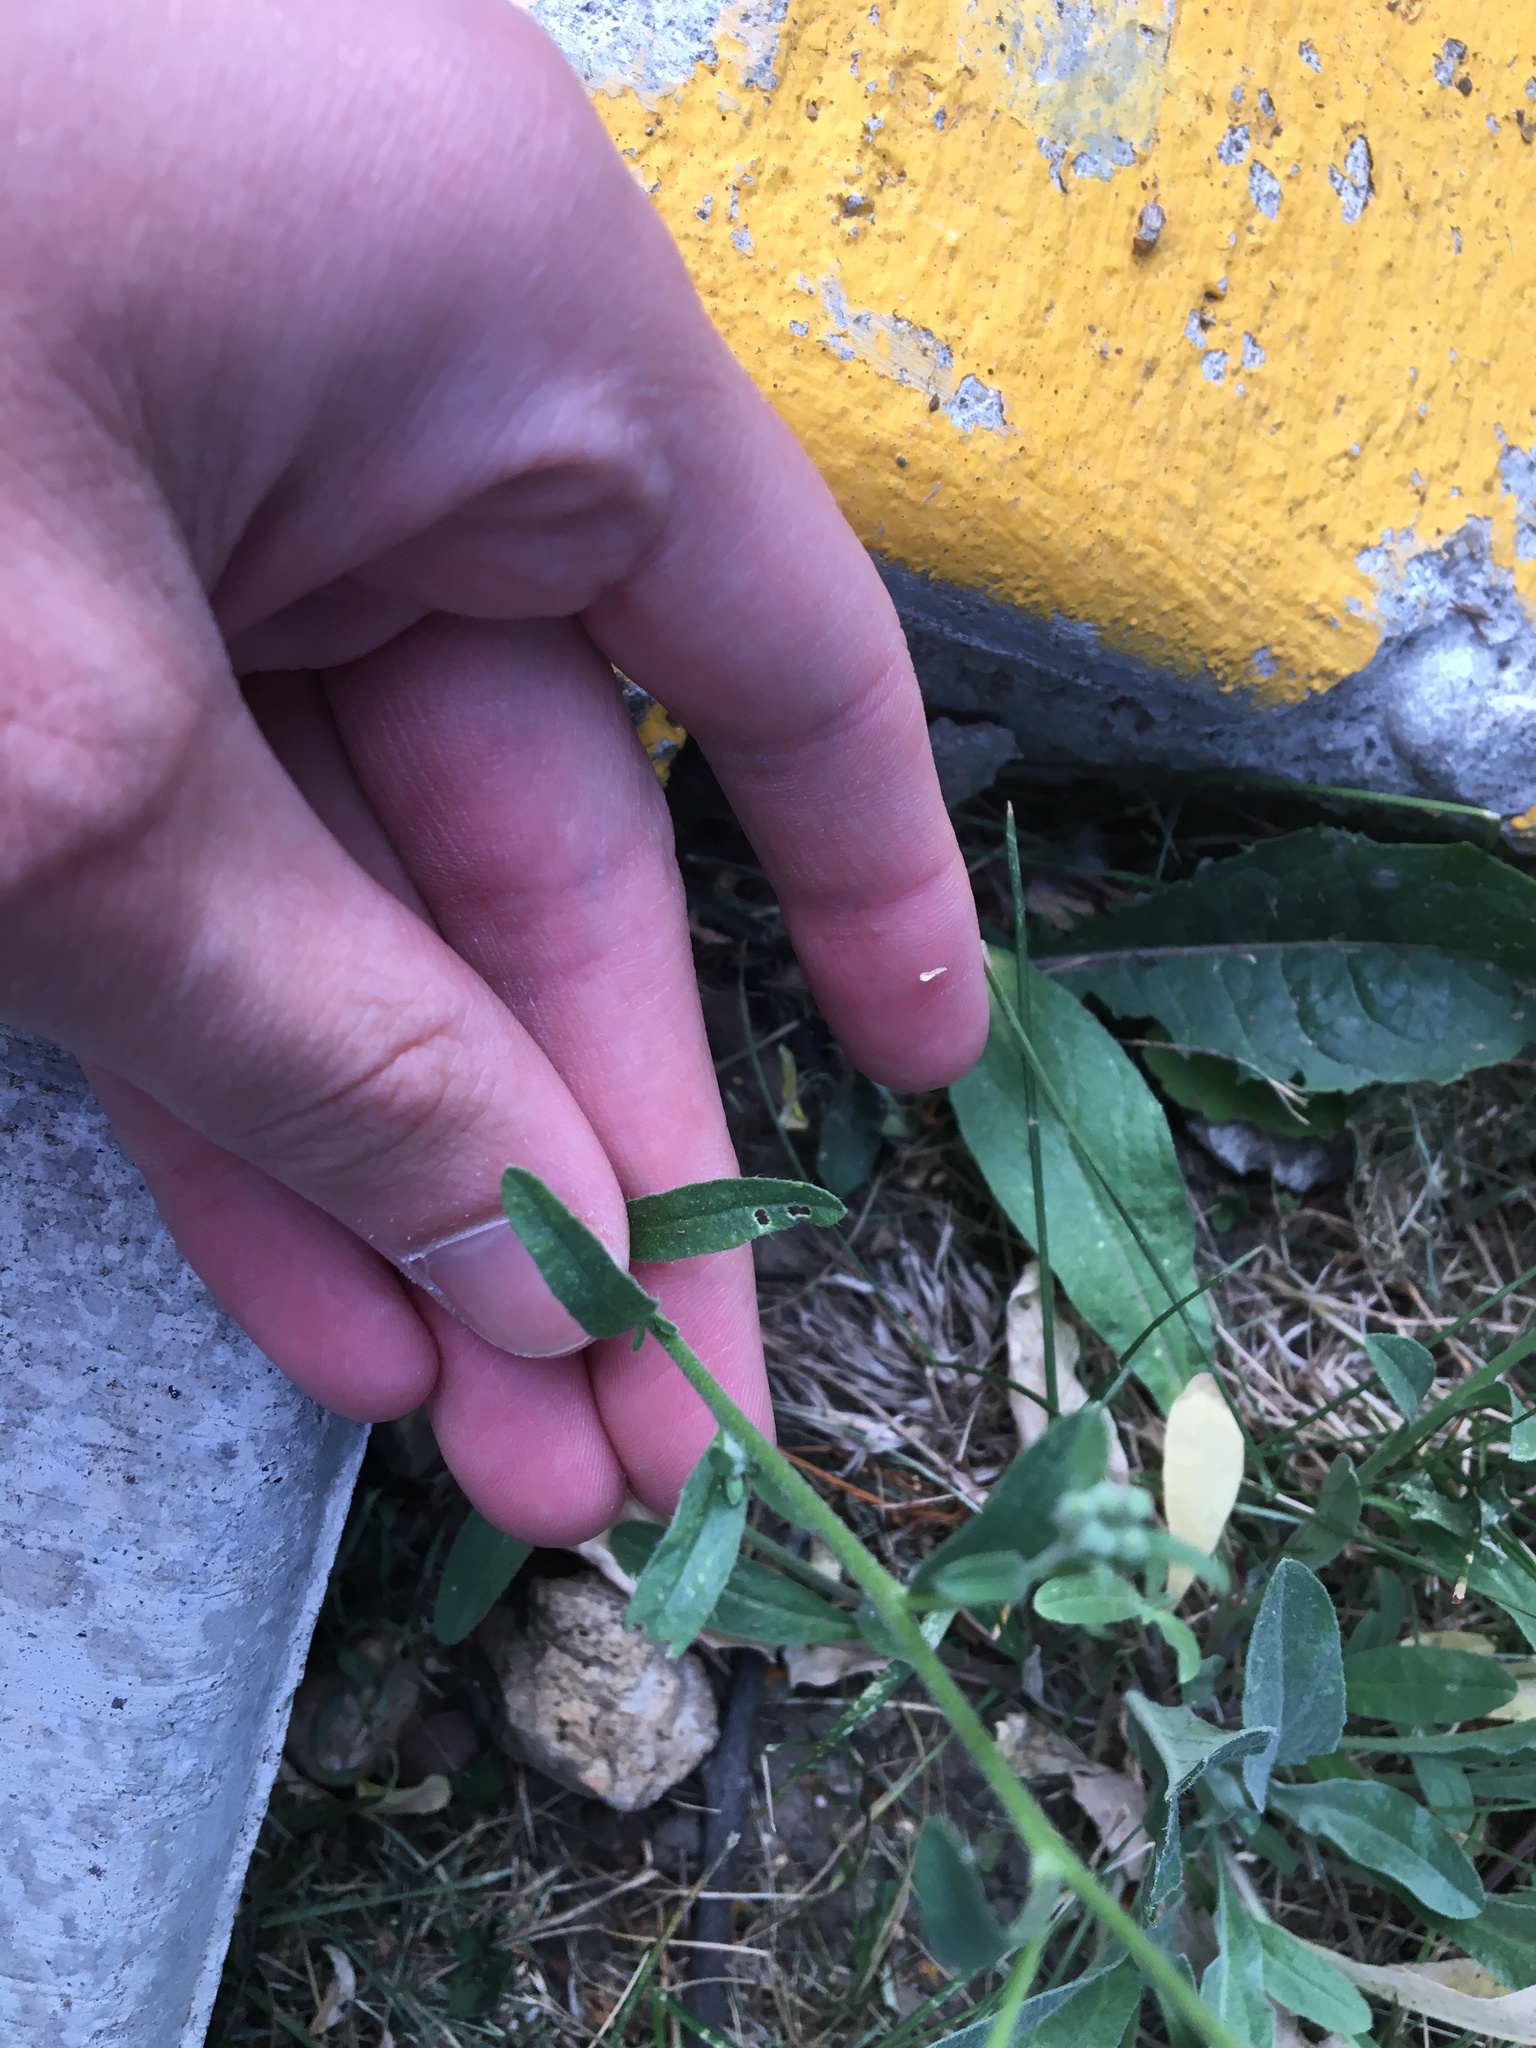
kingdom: Plantae
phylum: Tracheophyta
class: Magnoliopsida
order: Brassicales
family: Brassicaceae
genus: Berteroa
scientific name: Berteroa incana
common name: Hoary alison
